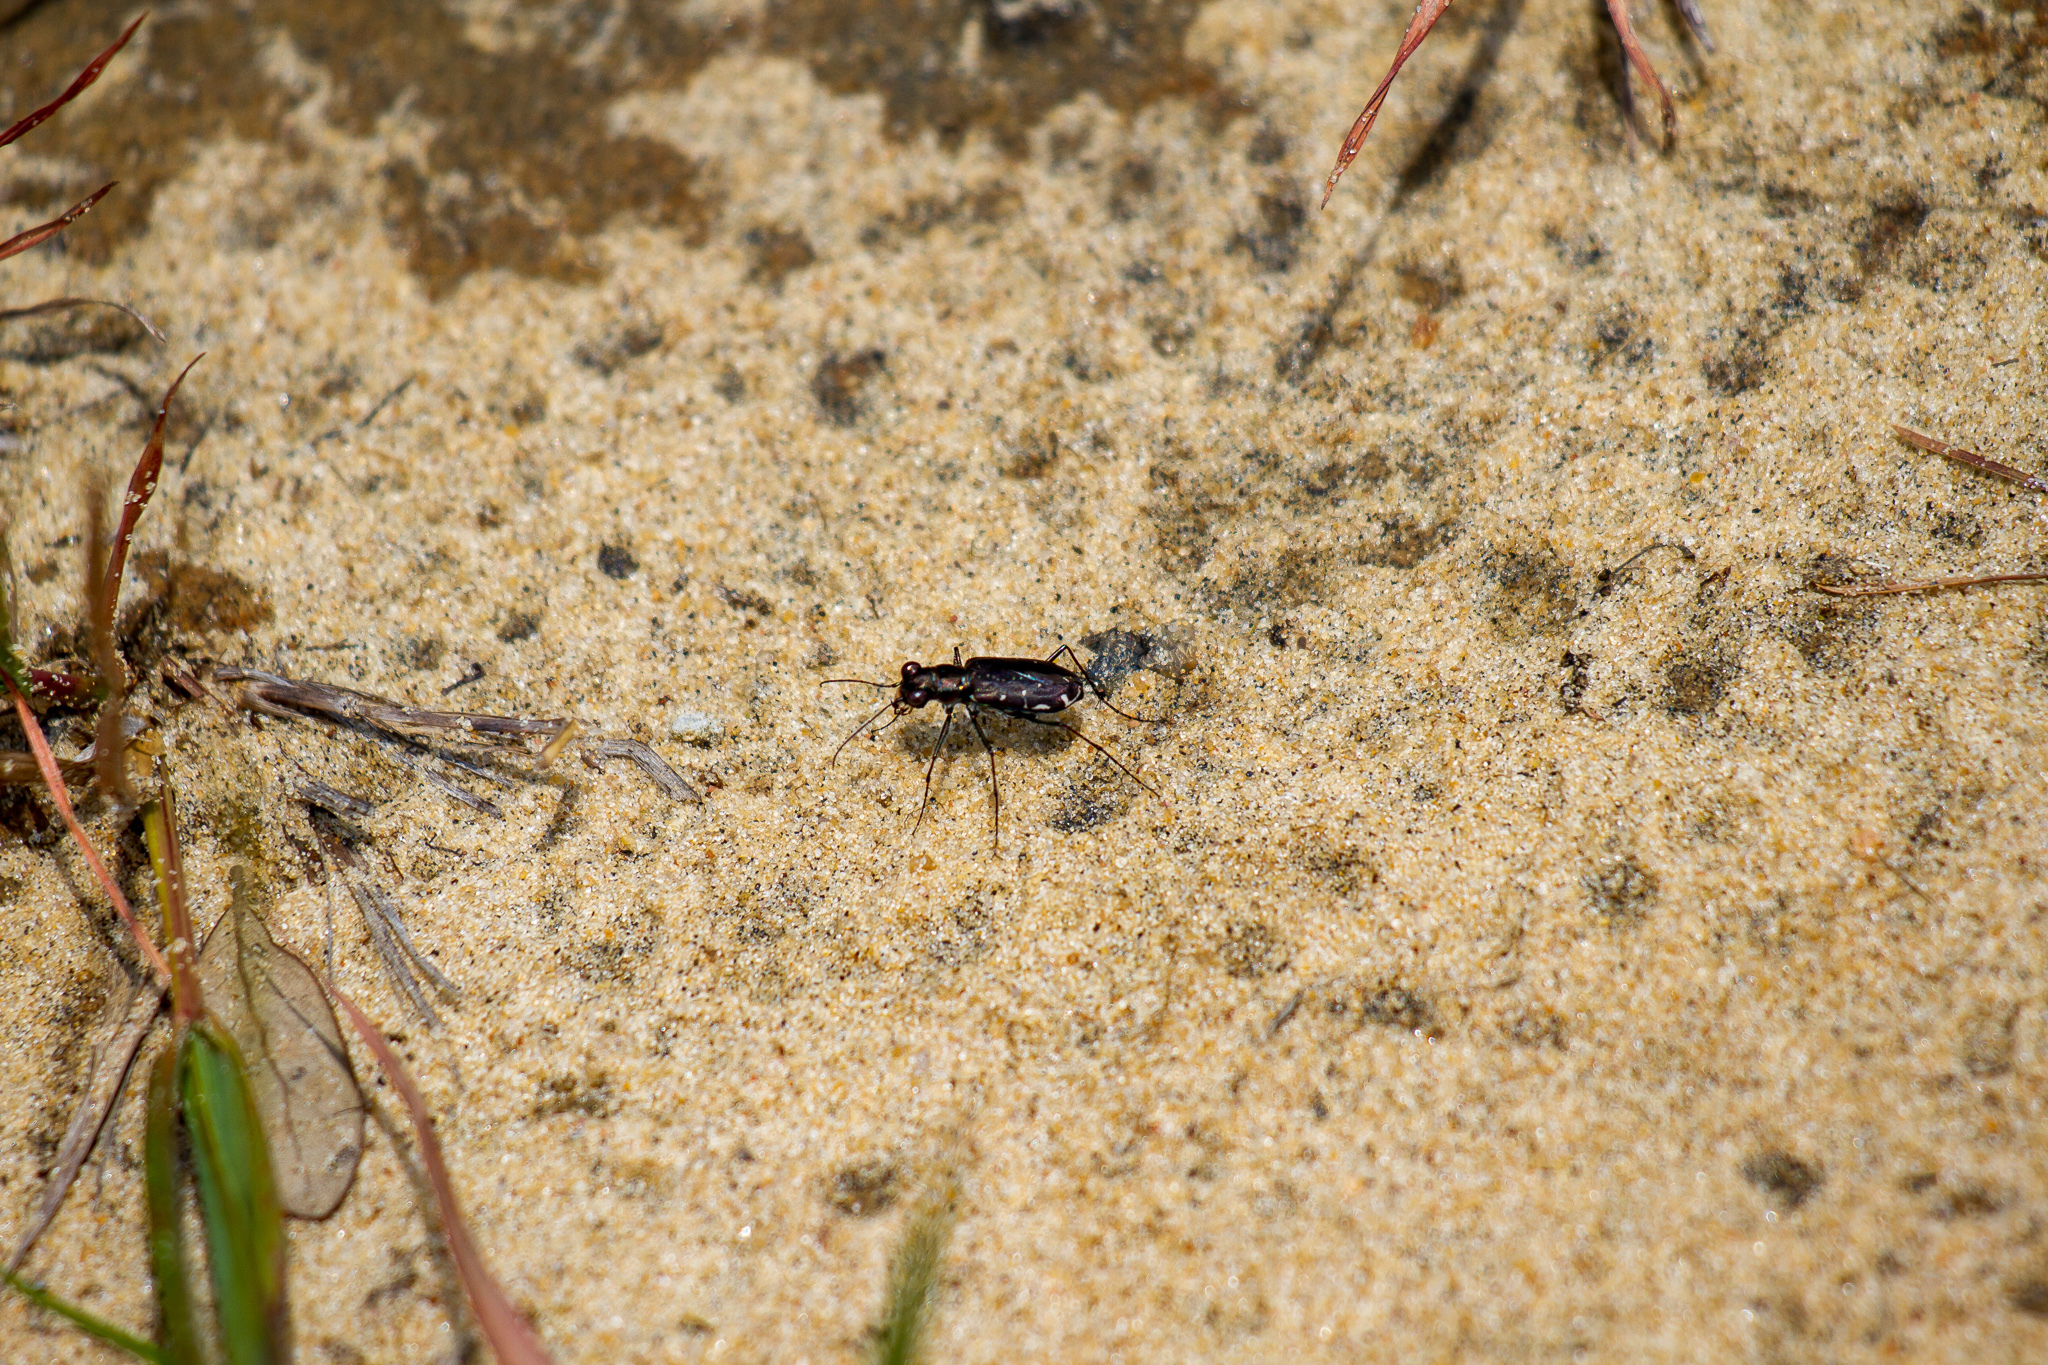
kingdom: Animalia
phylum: Arthropoda
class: Insecta
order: Coleoptera
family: Carabidae
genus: Cicindela
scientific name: Cicindela punctulata
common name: Punctured tiger beetle
